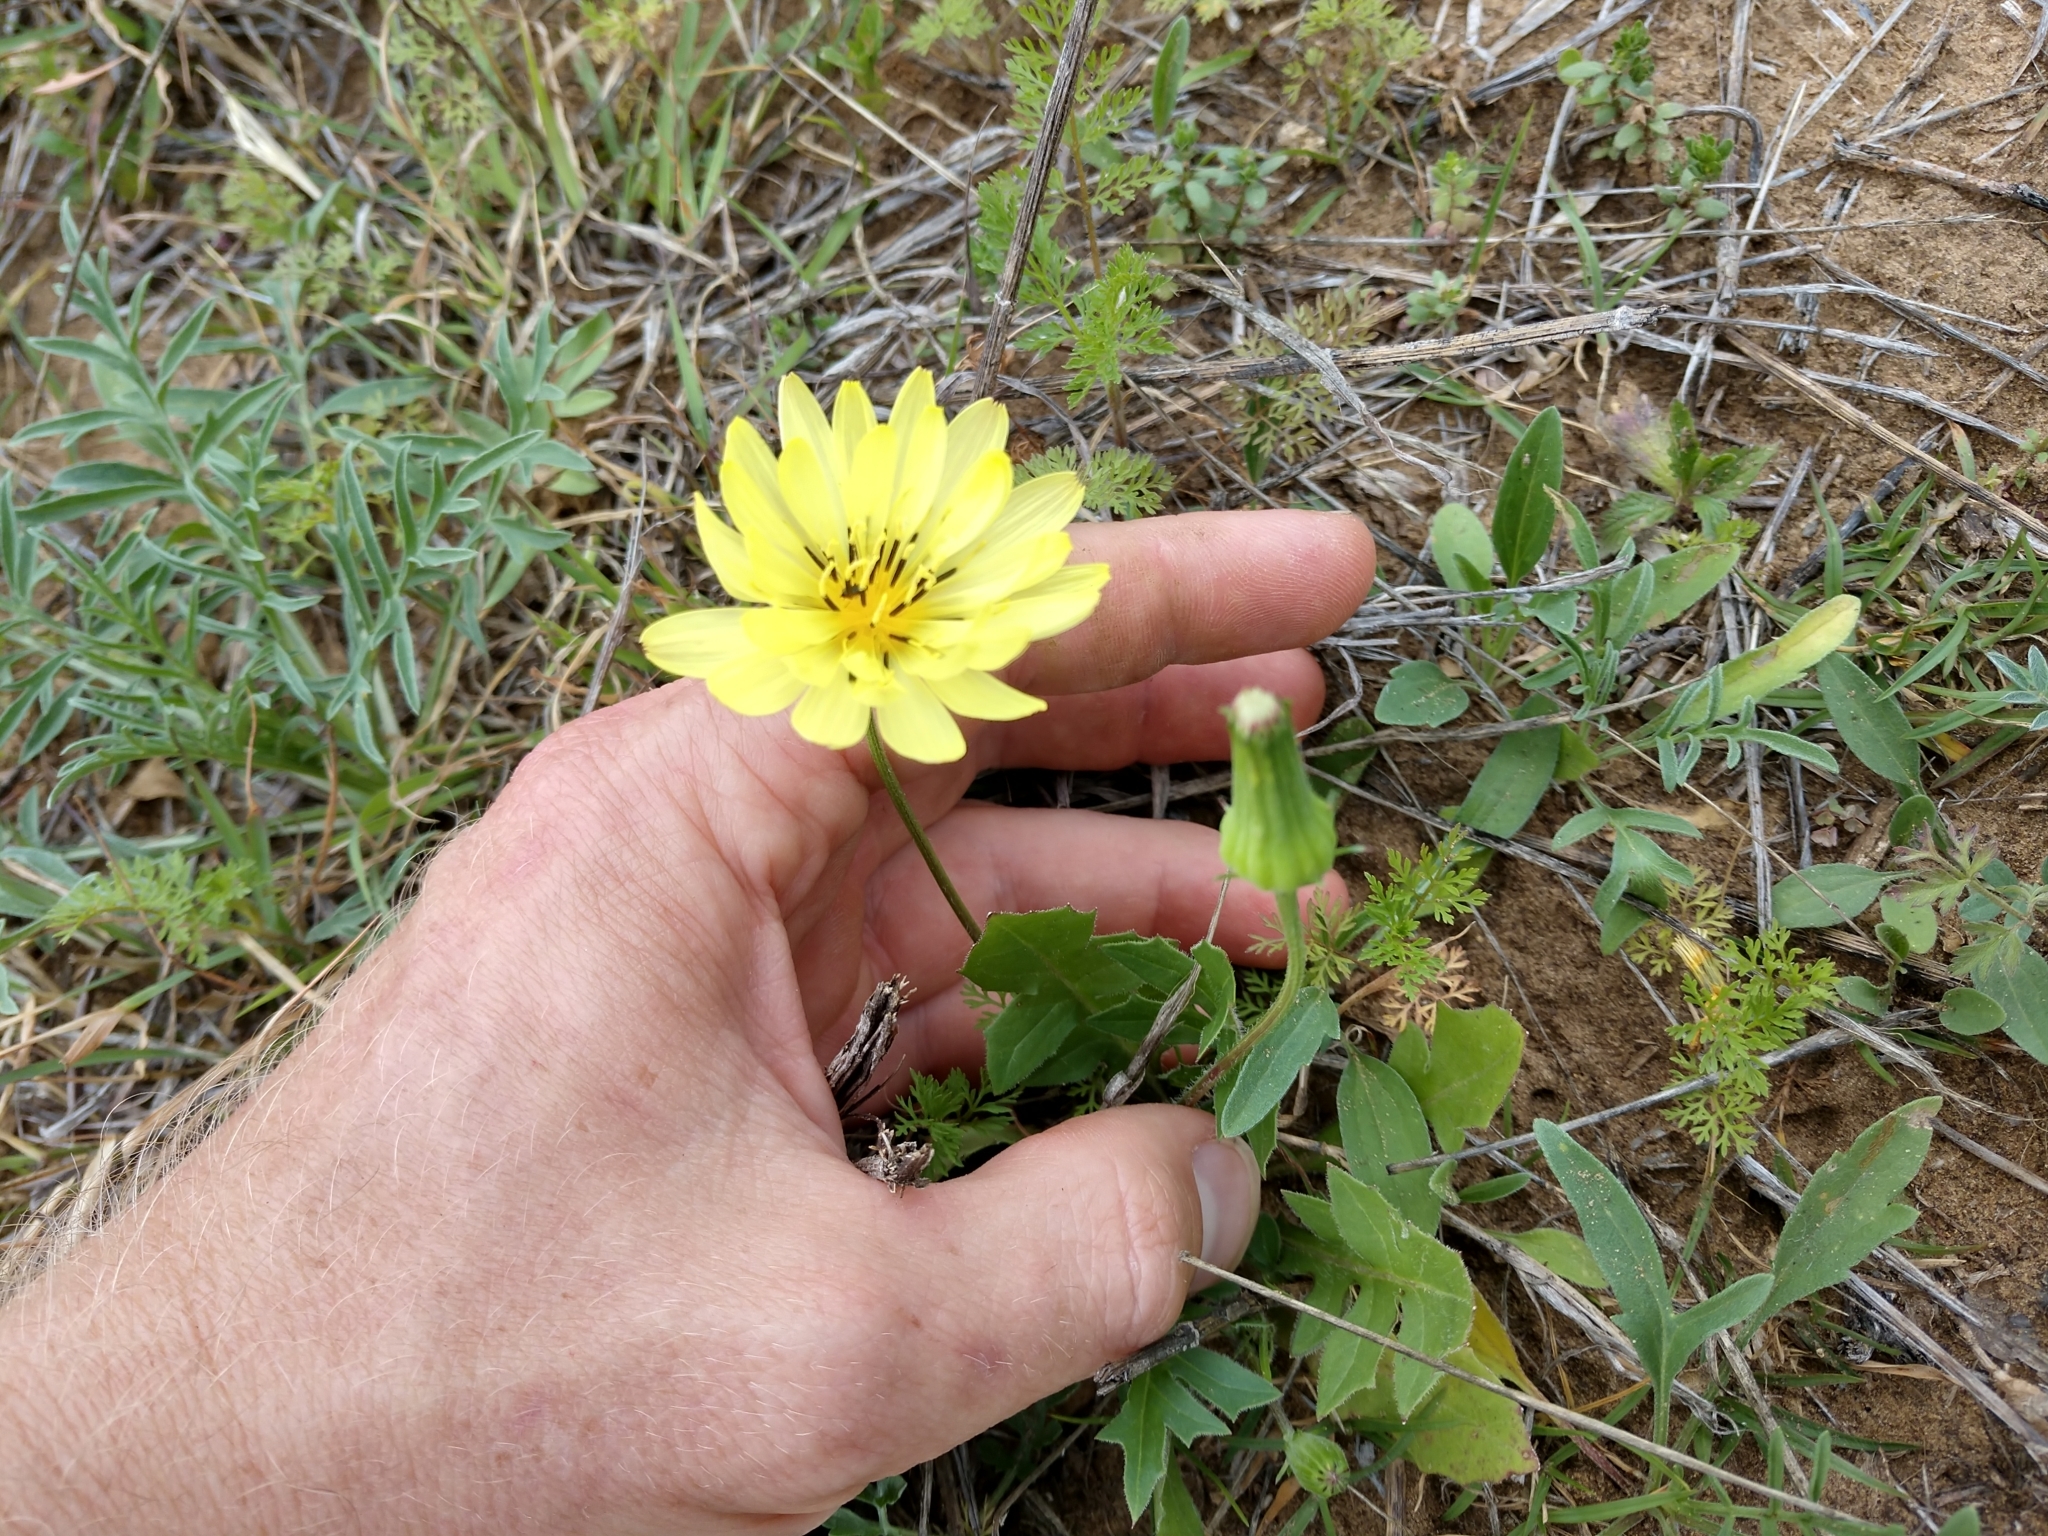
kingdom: Plantae
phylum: Tracheophyta
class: Magnoliopsida
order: Asterales
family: Asteraceae
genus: Pyrrhopappus
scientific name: Pyrrhopappus pauciflorus
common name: Texas false dandelion
